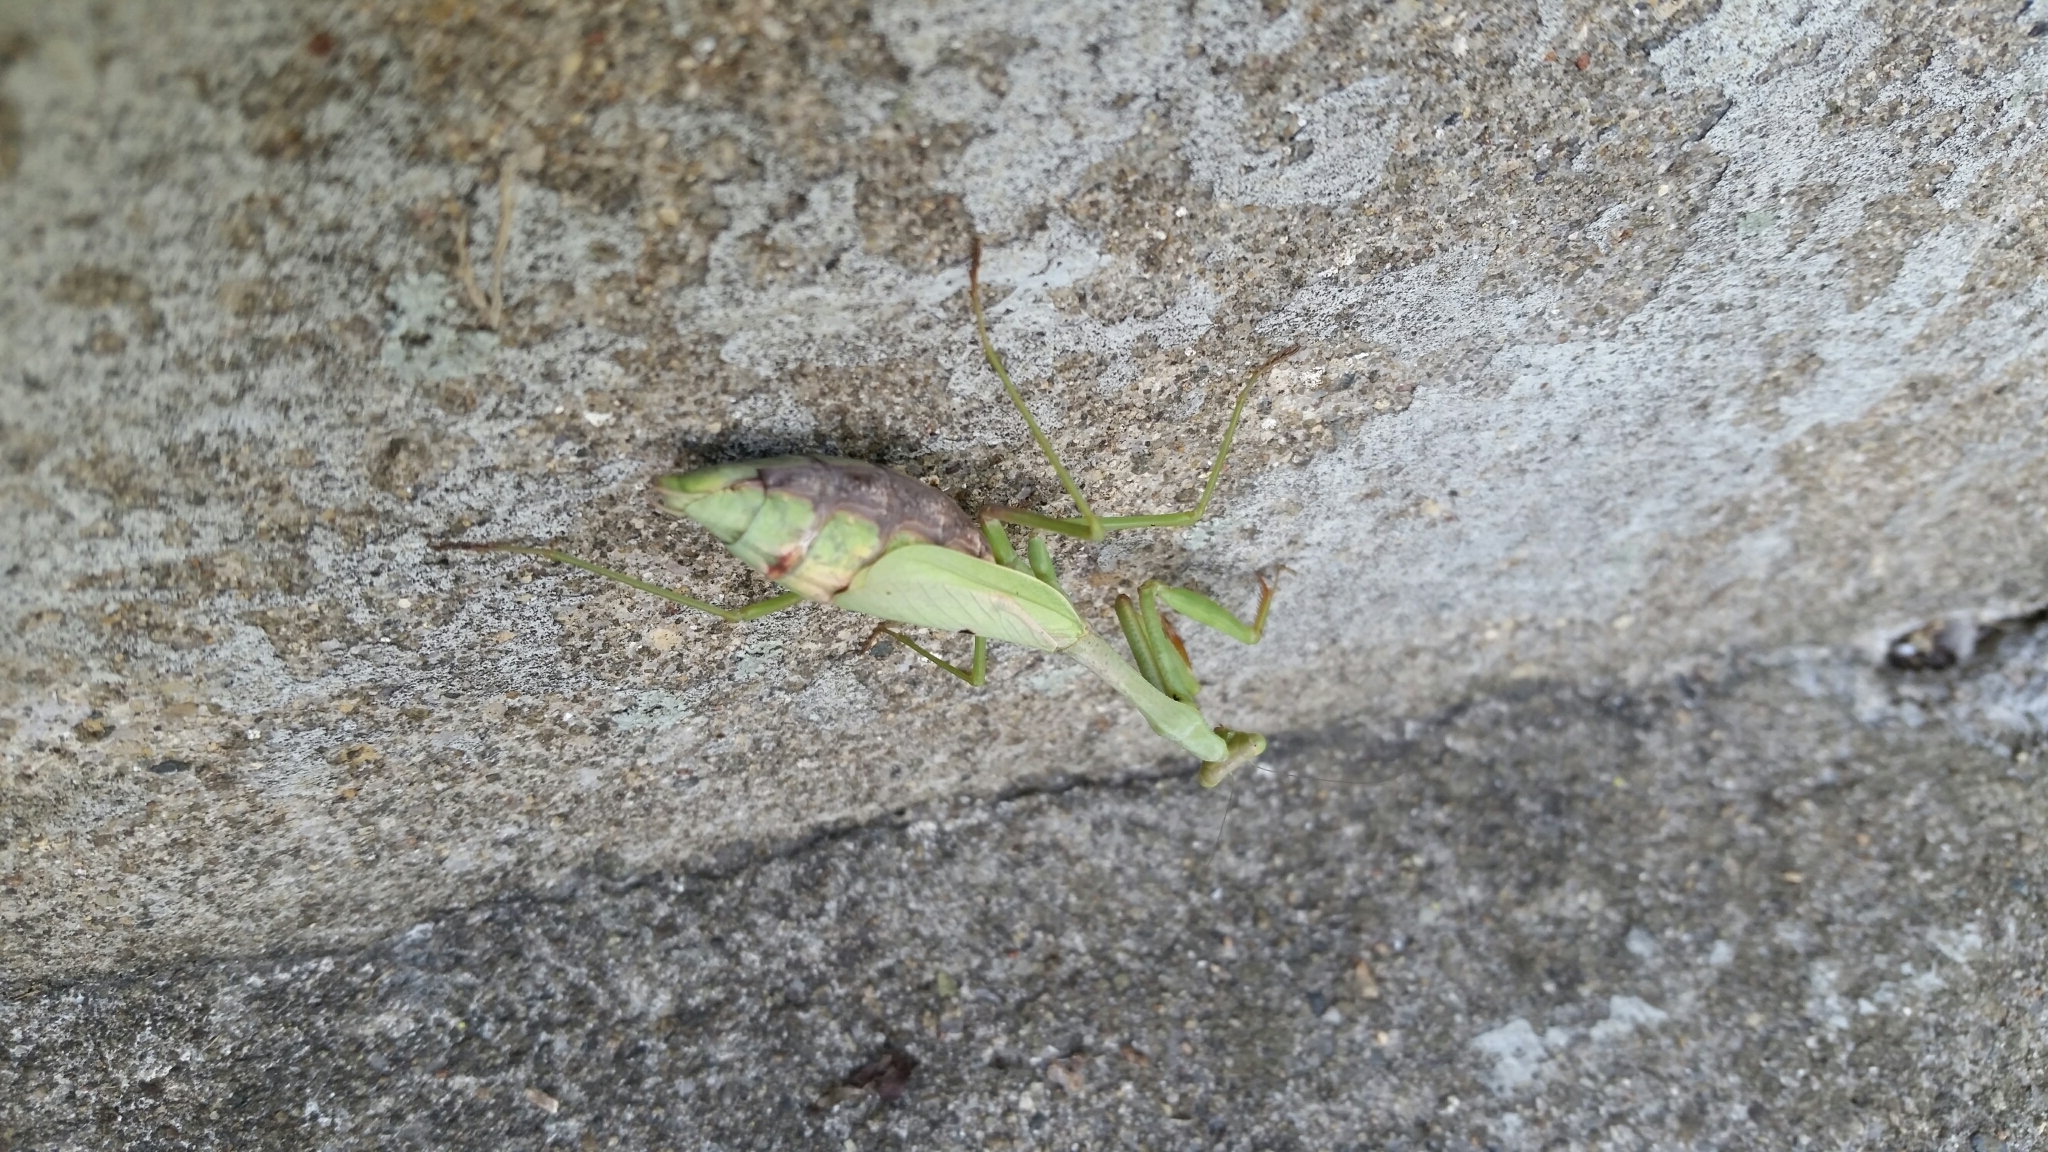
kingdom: Animalia
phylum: Arthropoda
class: Insecta
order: Mantodea
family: Mantidae
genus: Stagmomantis
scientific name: Stagmomantis carolina
